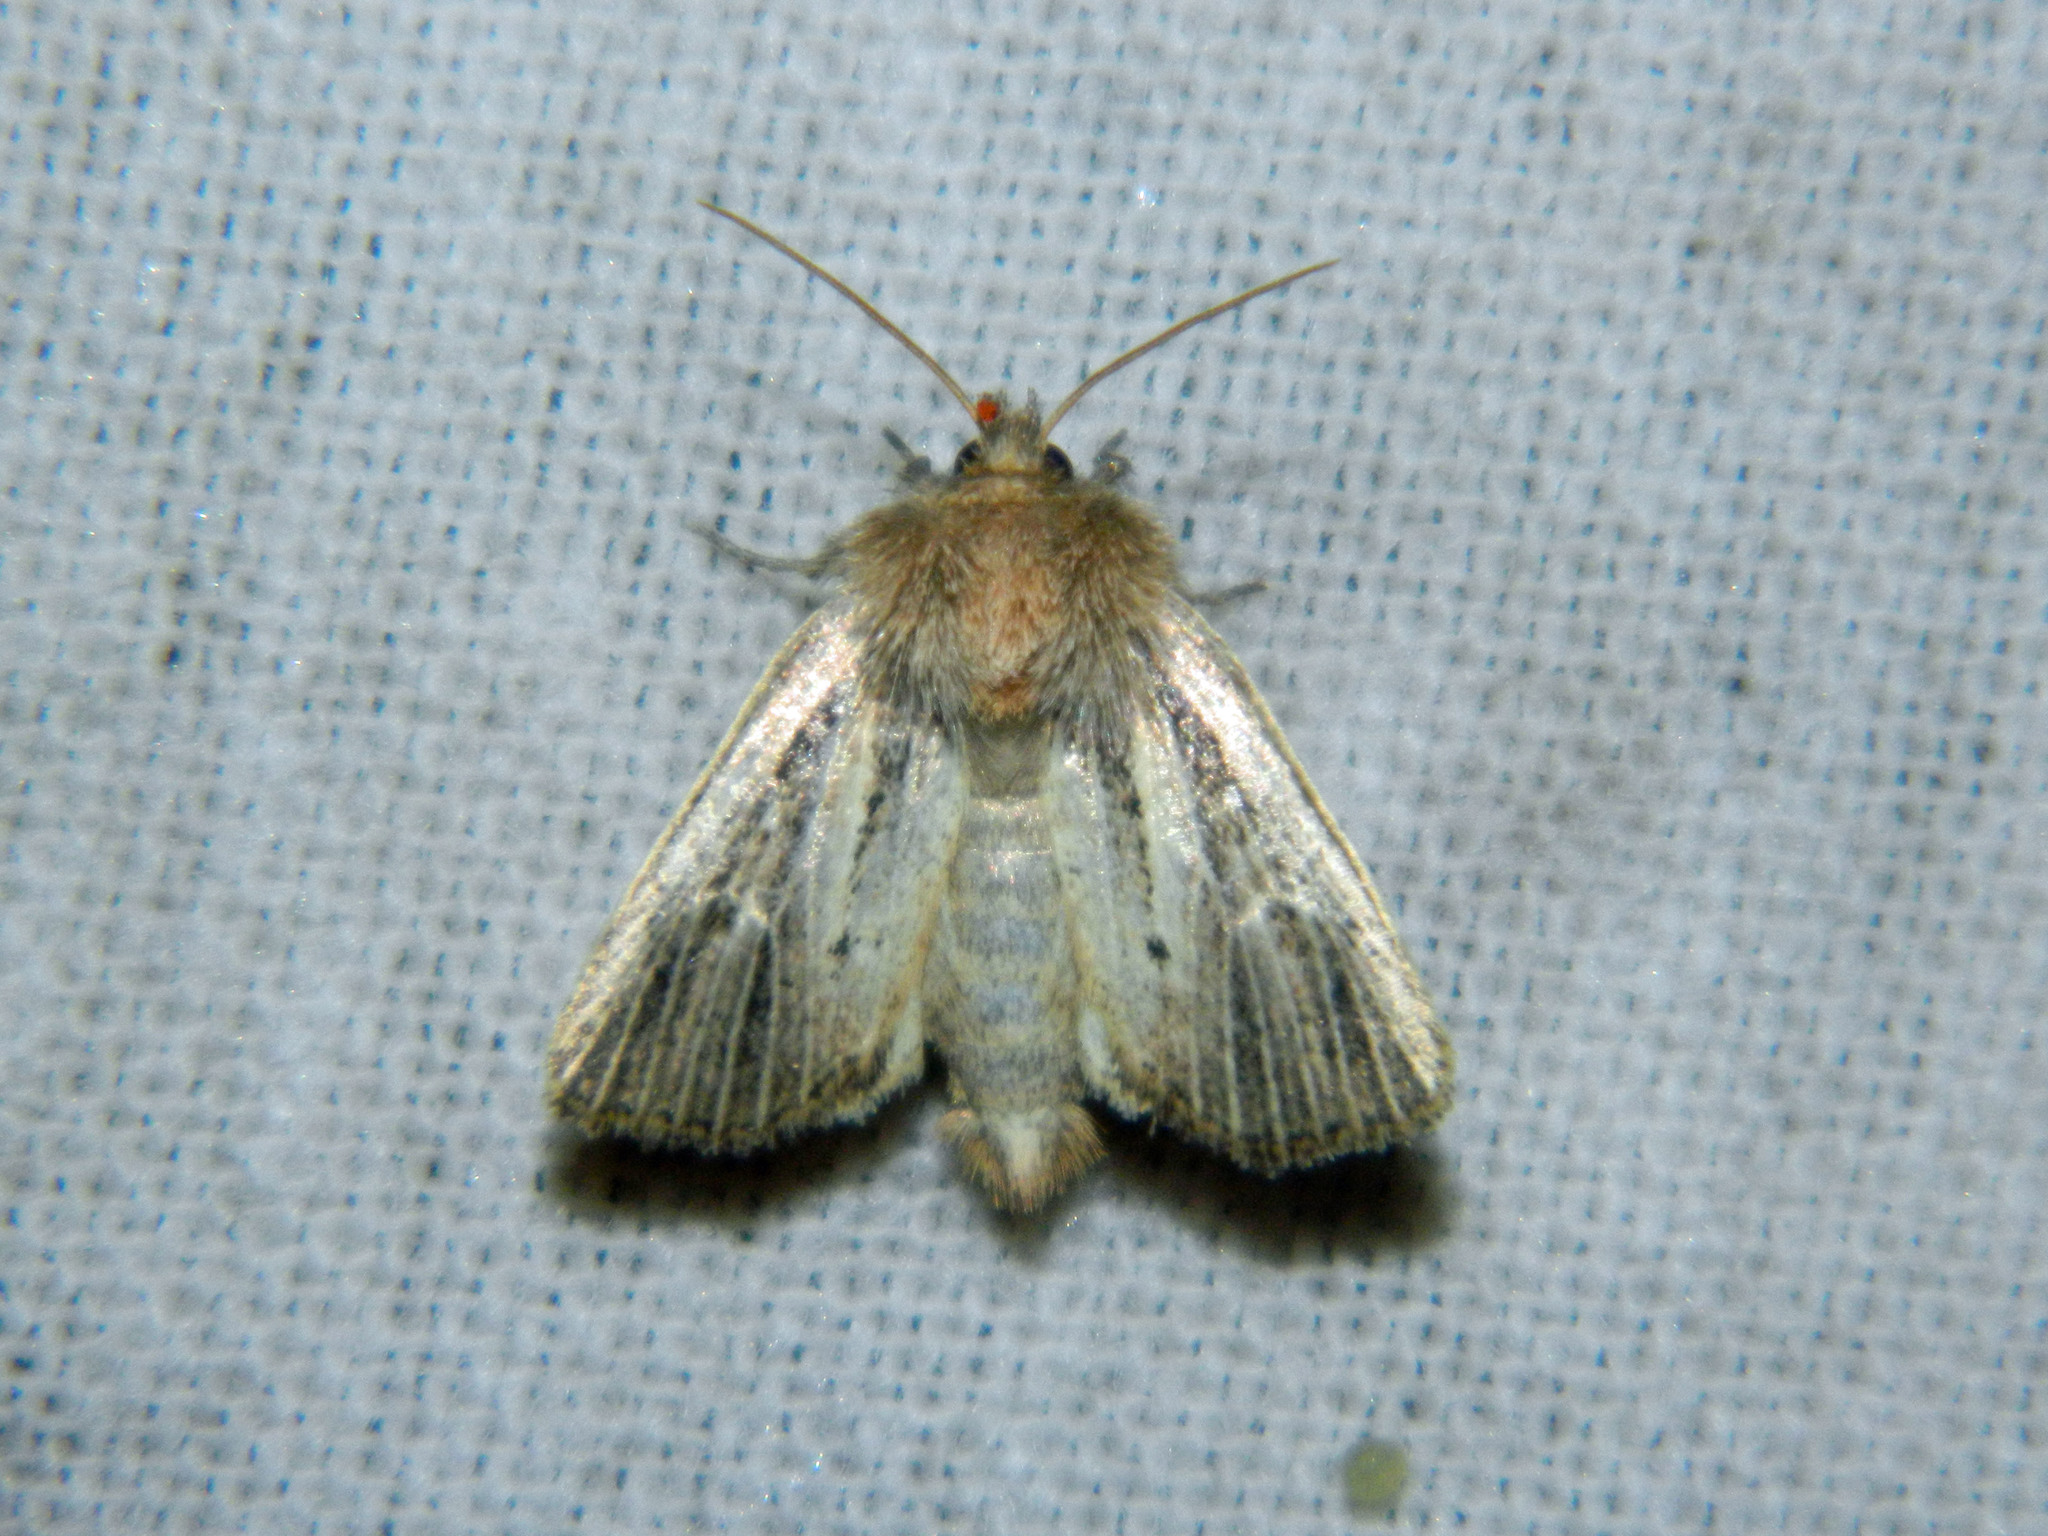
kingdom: Animalia
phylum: Arthropoda
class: Insecta
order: Lepidoptera
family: Noctuidae
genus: Hypocoena
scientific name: Hypocoena inquinata
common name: Tufted sedge moth
